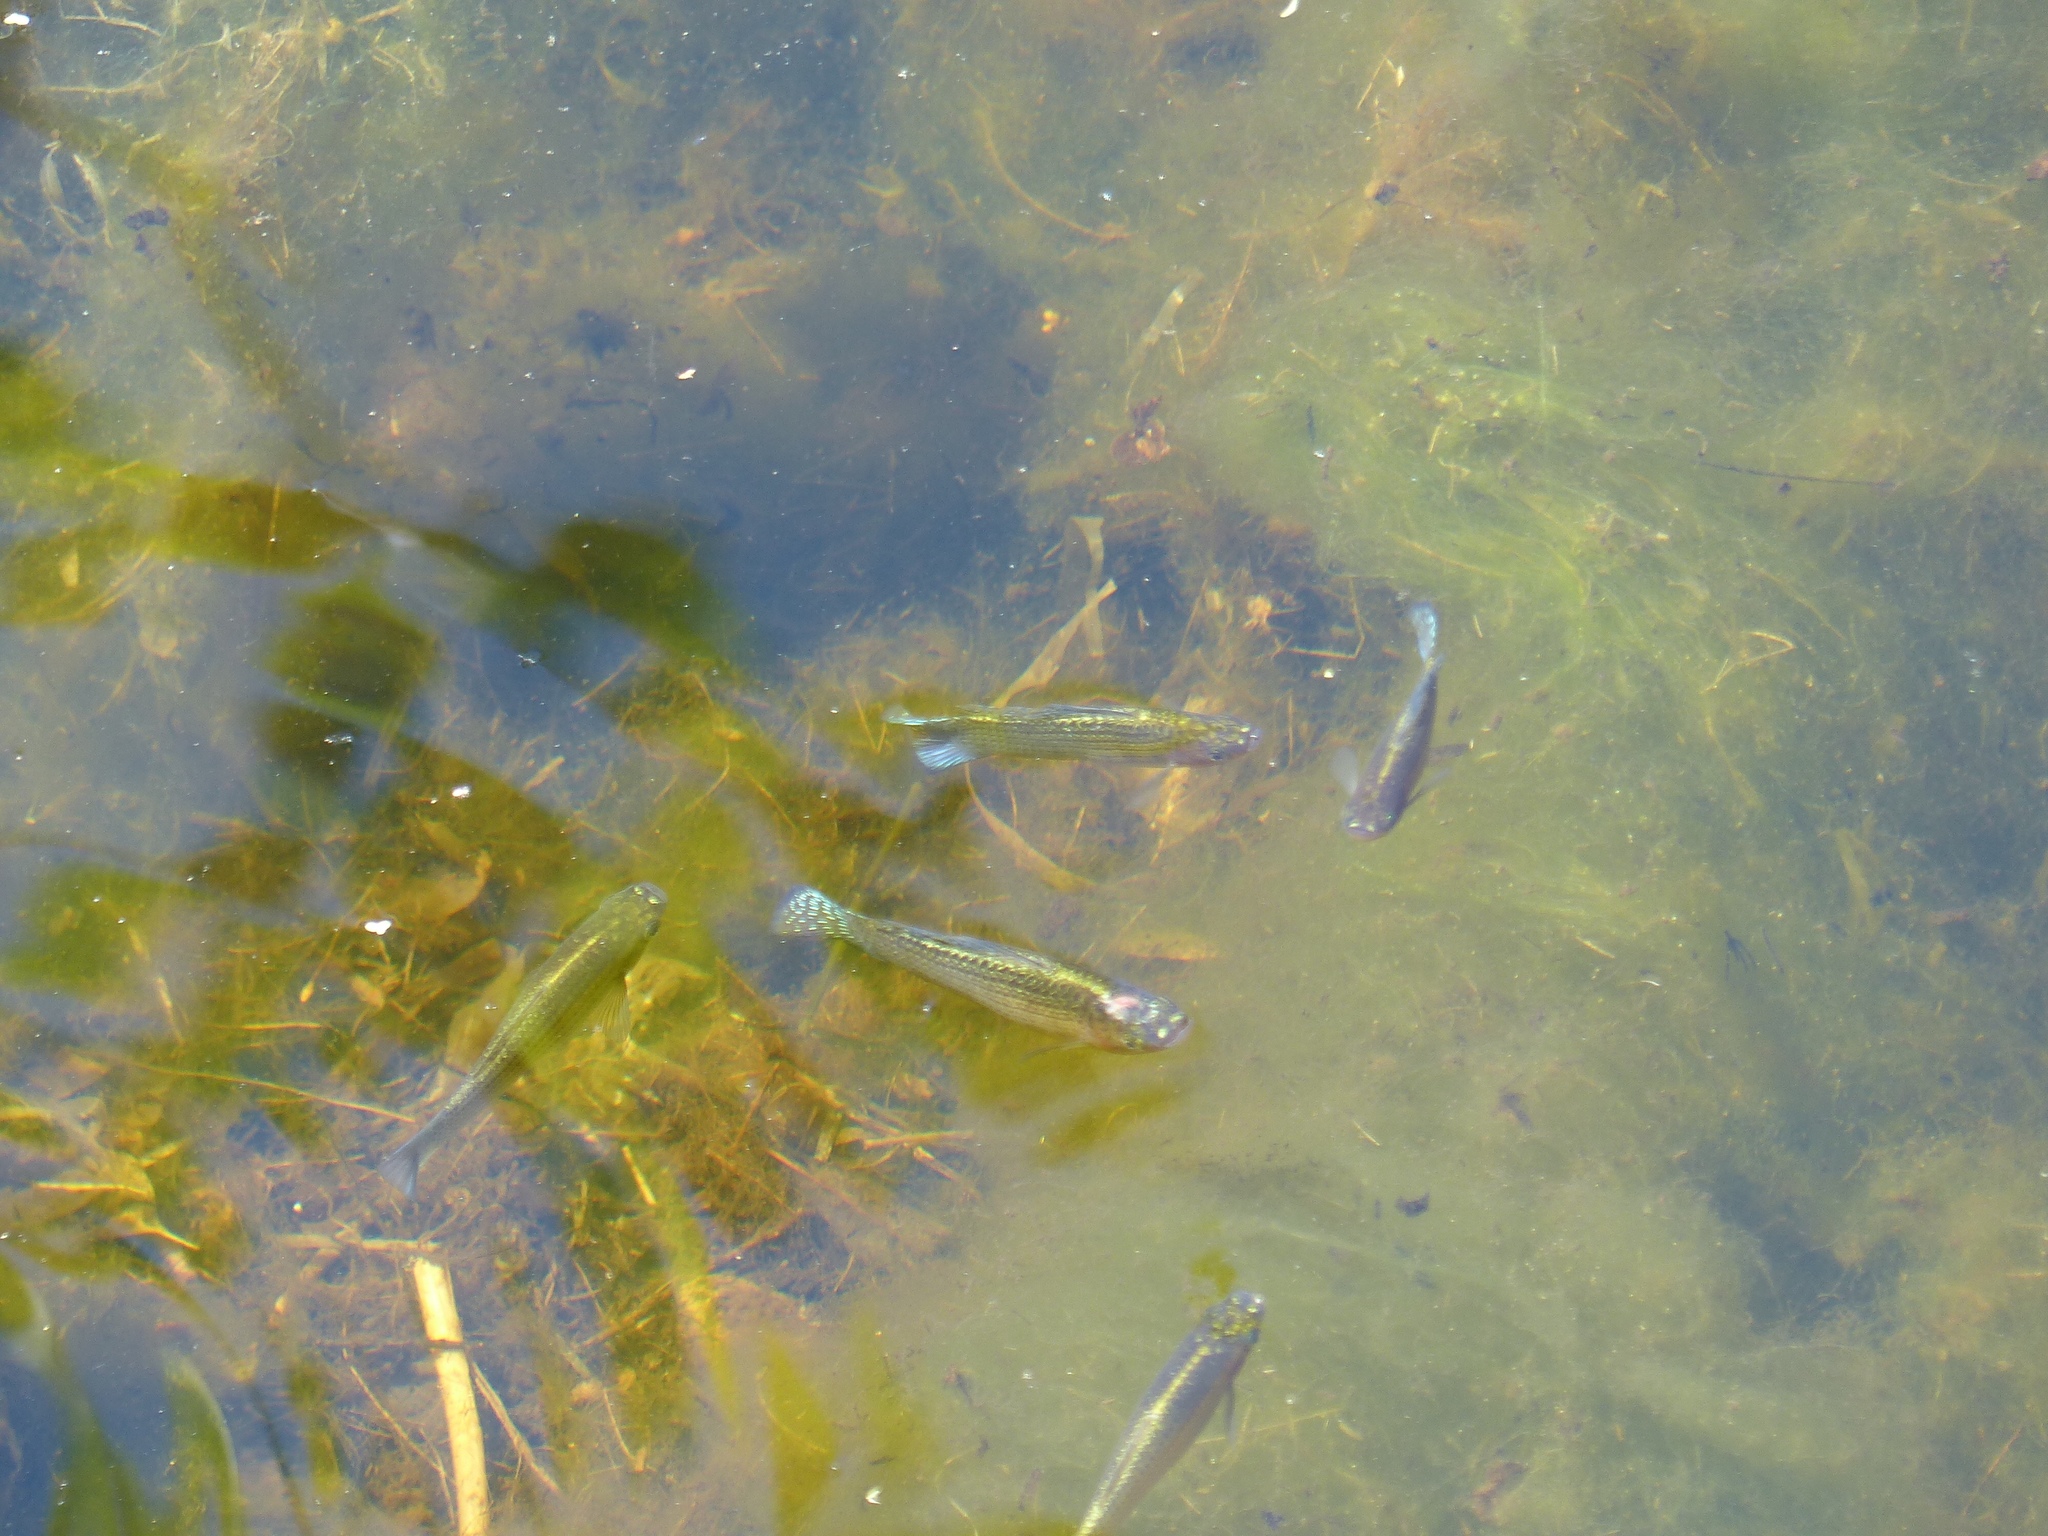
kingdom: Animalia
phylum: Chordata
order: Cyprinodontiformes
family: Poeciliidae
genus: Poecilia
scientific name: Poecilia latipinna
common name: Sailfin molly
